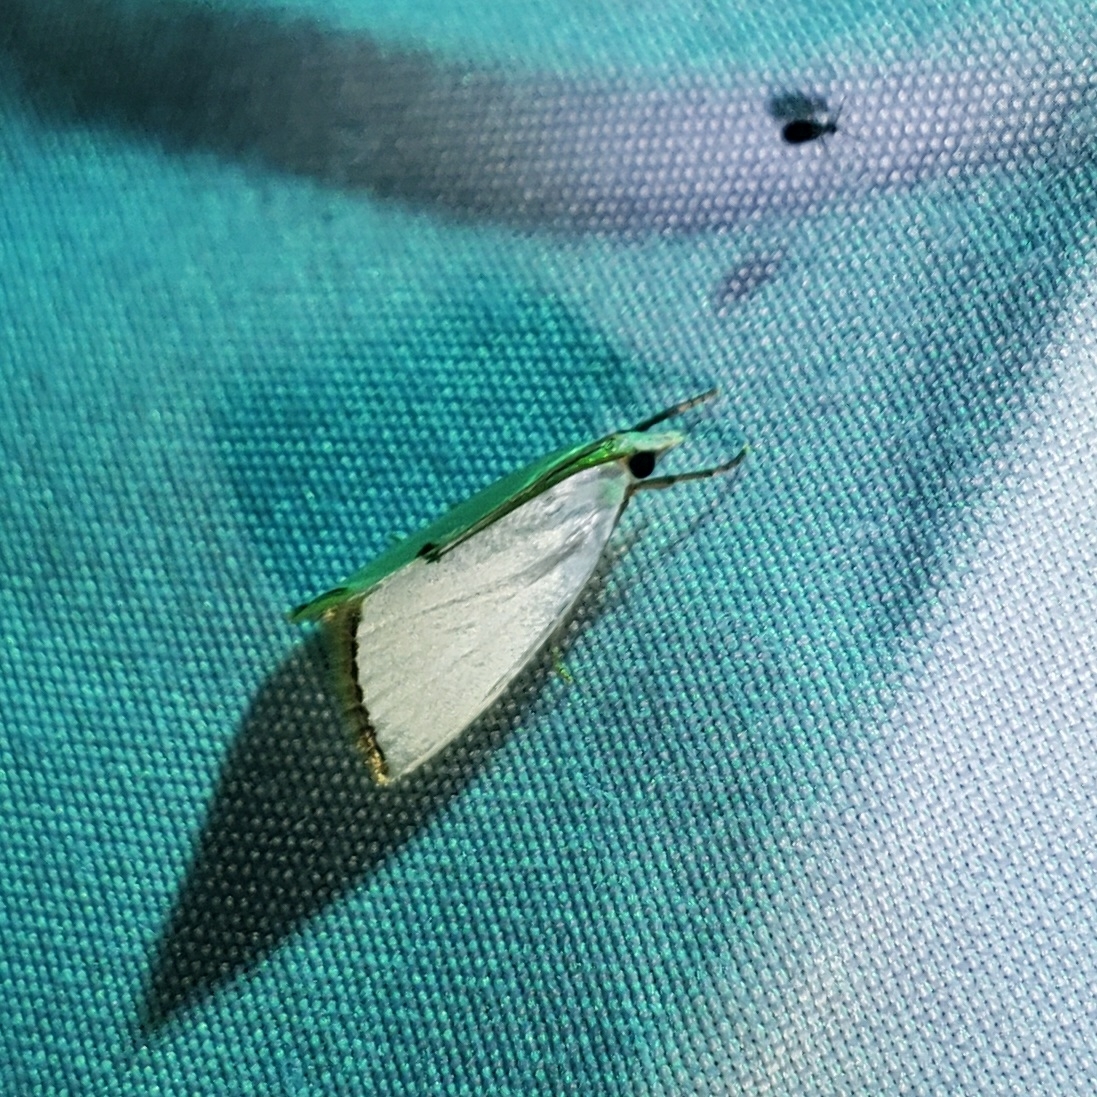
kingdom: Animalia
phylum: Arthropoda
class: Insecta
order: Lepidoptera
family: Crambidae
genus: Argyria
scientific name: Argyria nivalis
